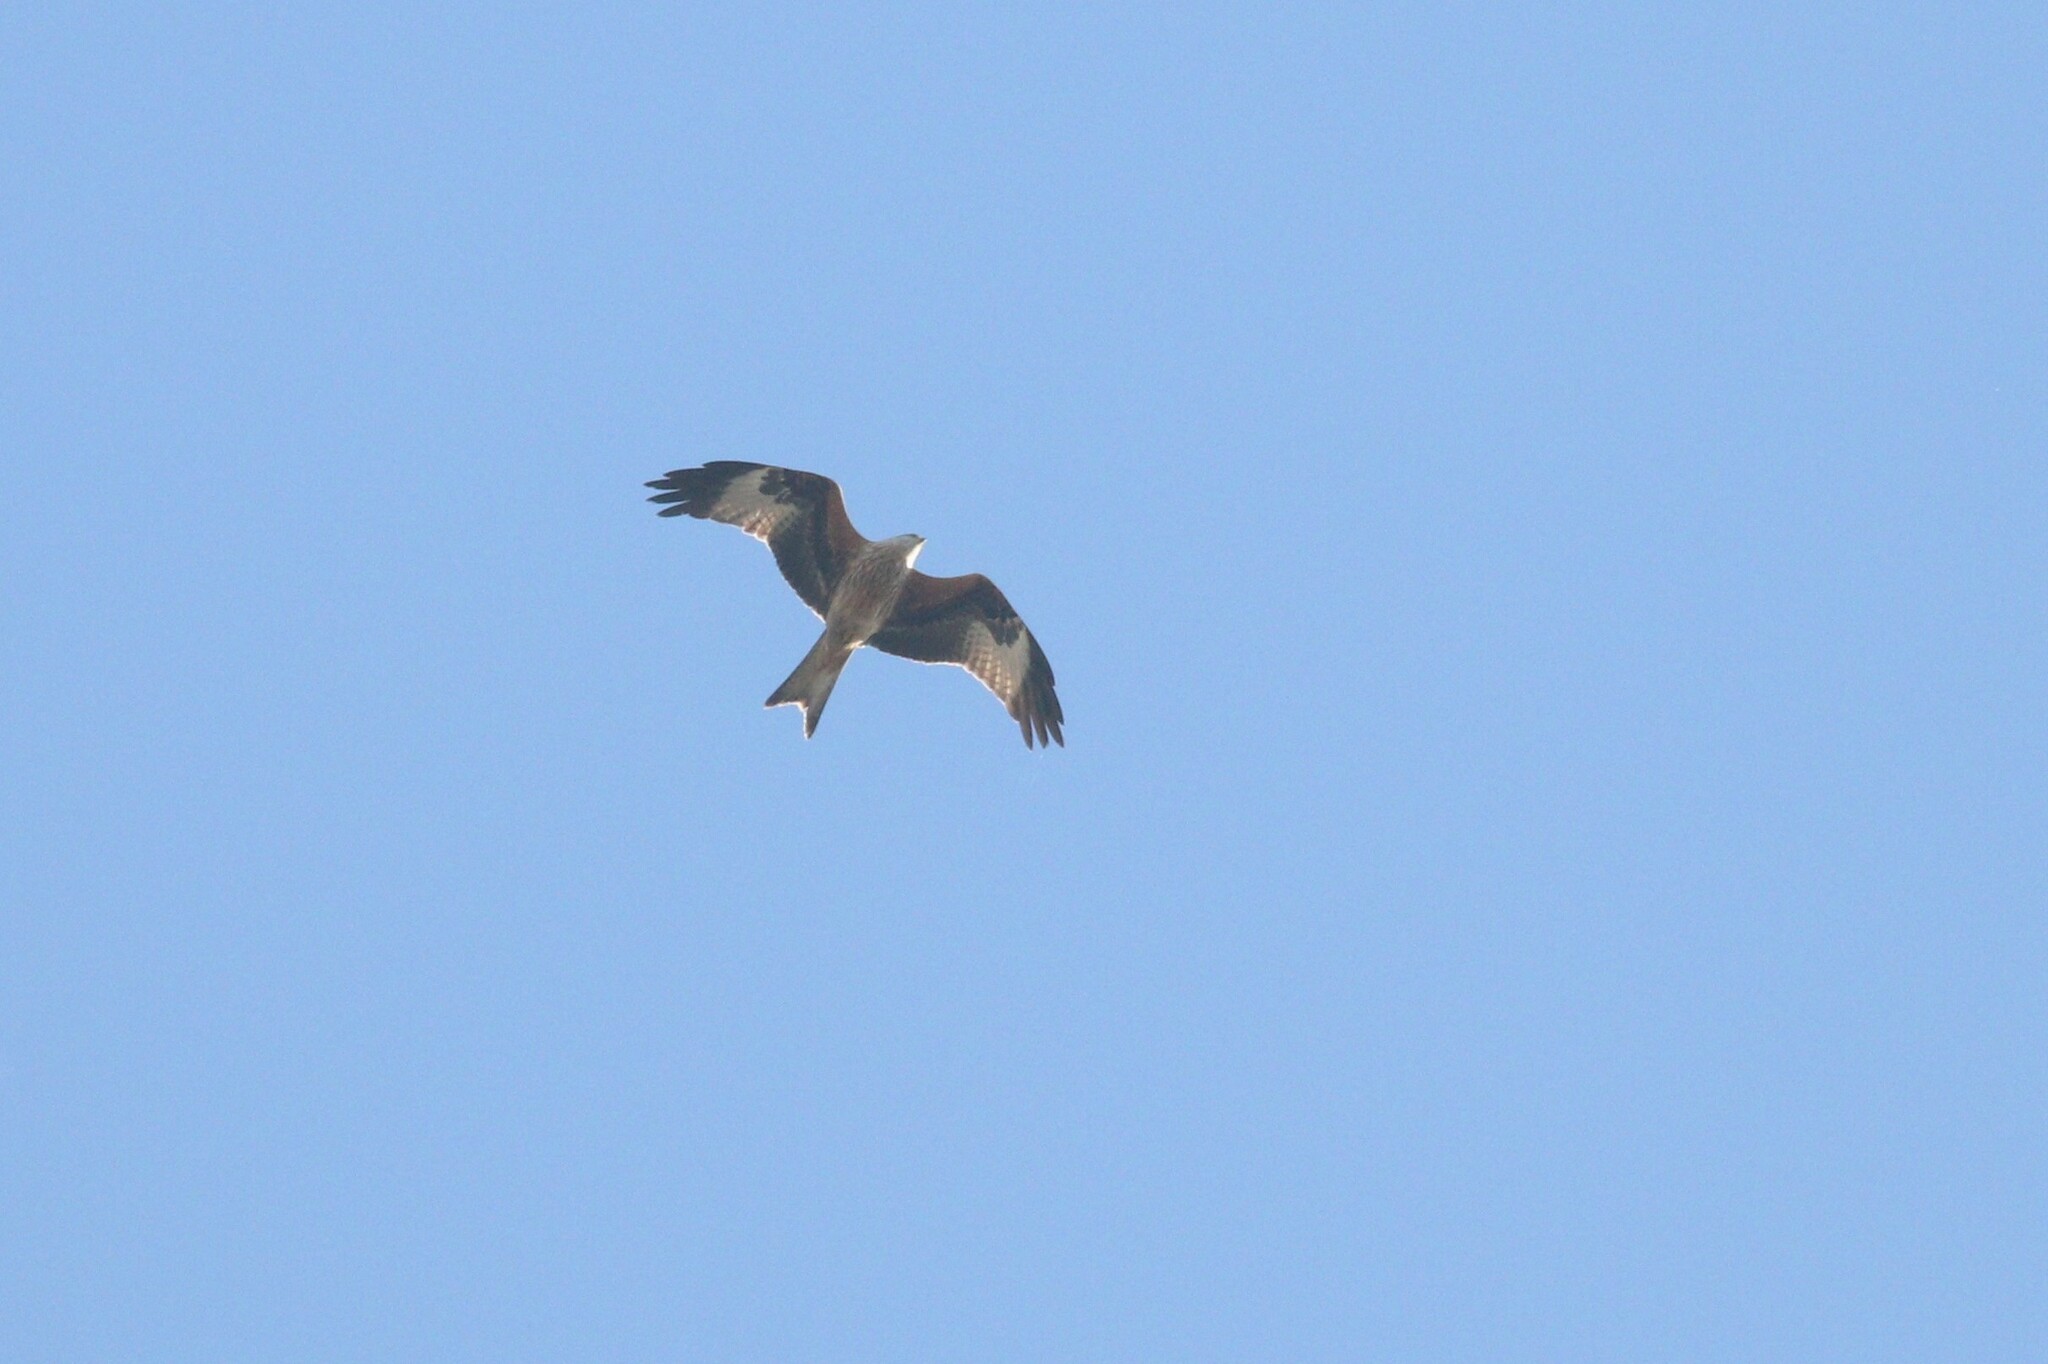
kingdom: Animalia
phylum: Chordata
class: Aves
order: Accipitriformes
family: Accipitridae
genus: Milvus
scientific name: Milvus milvus
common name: Red kite
